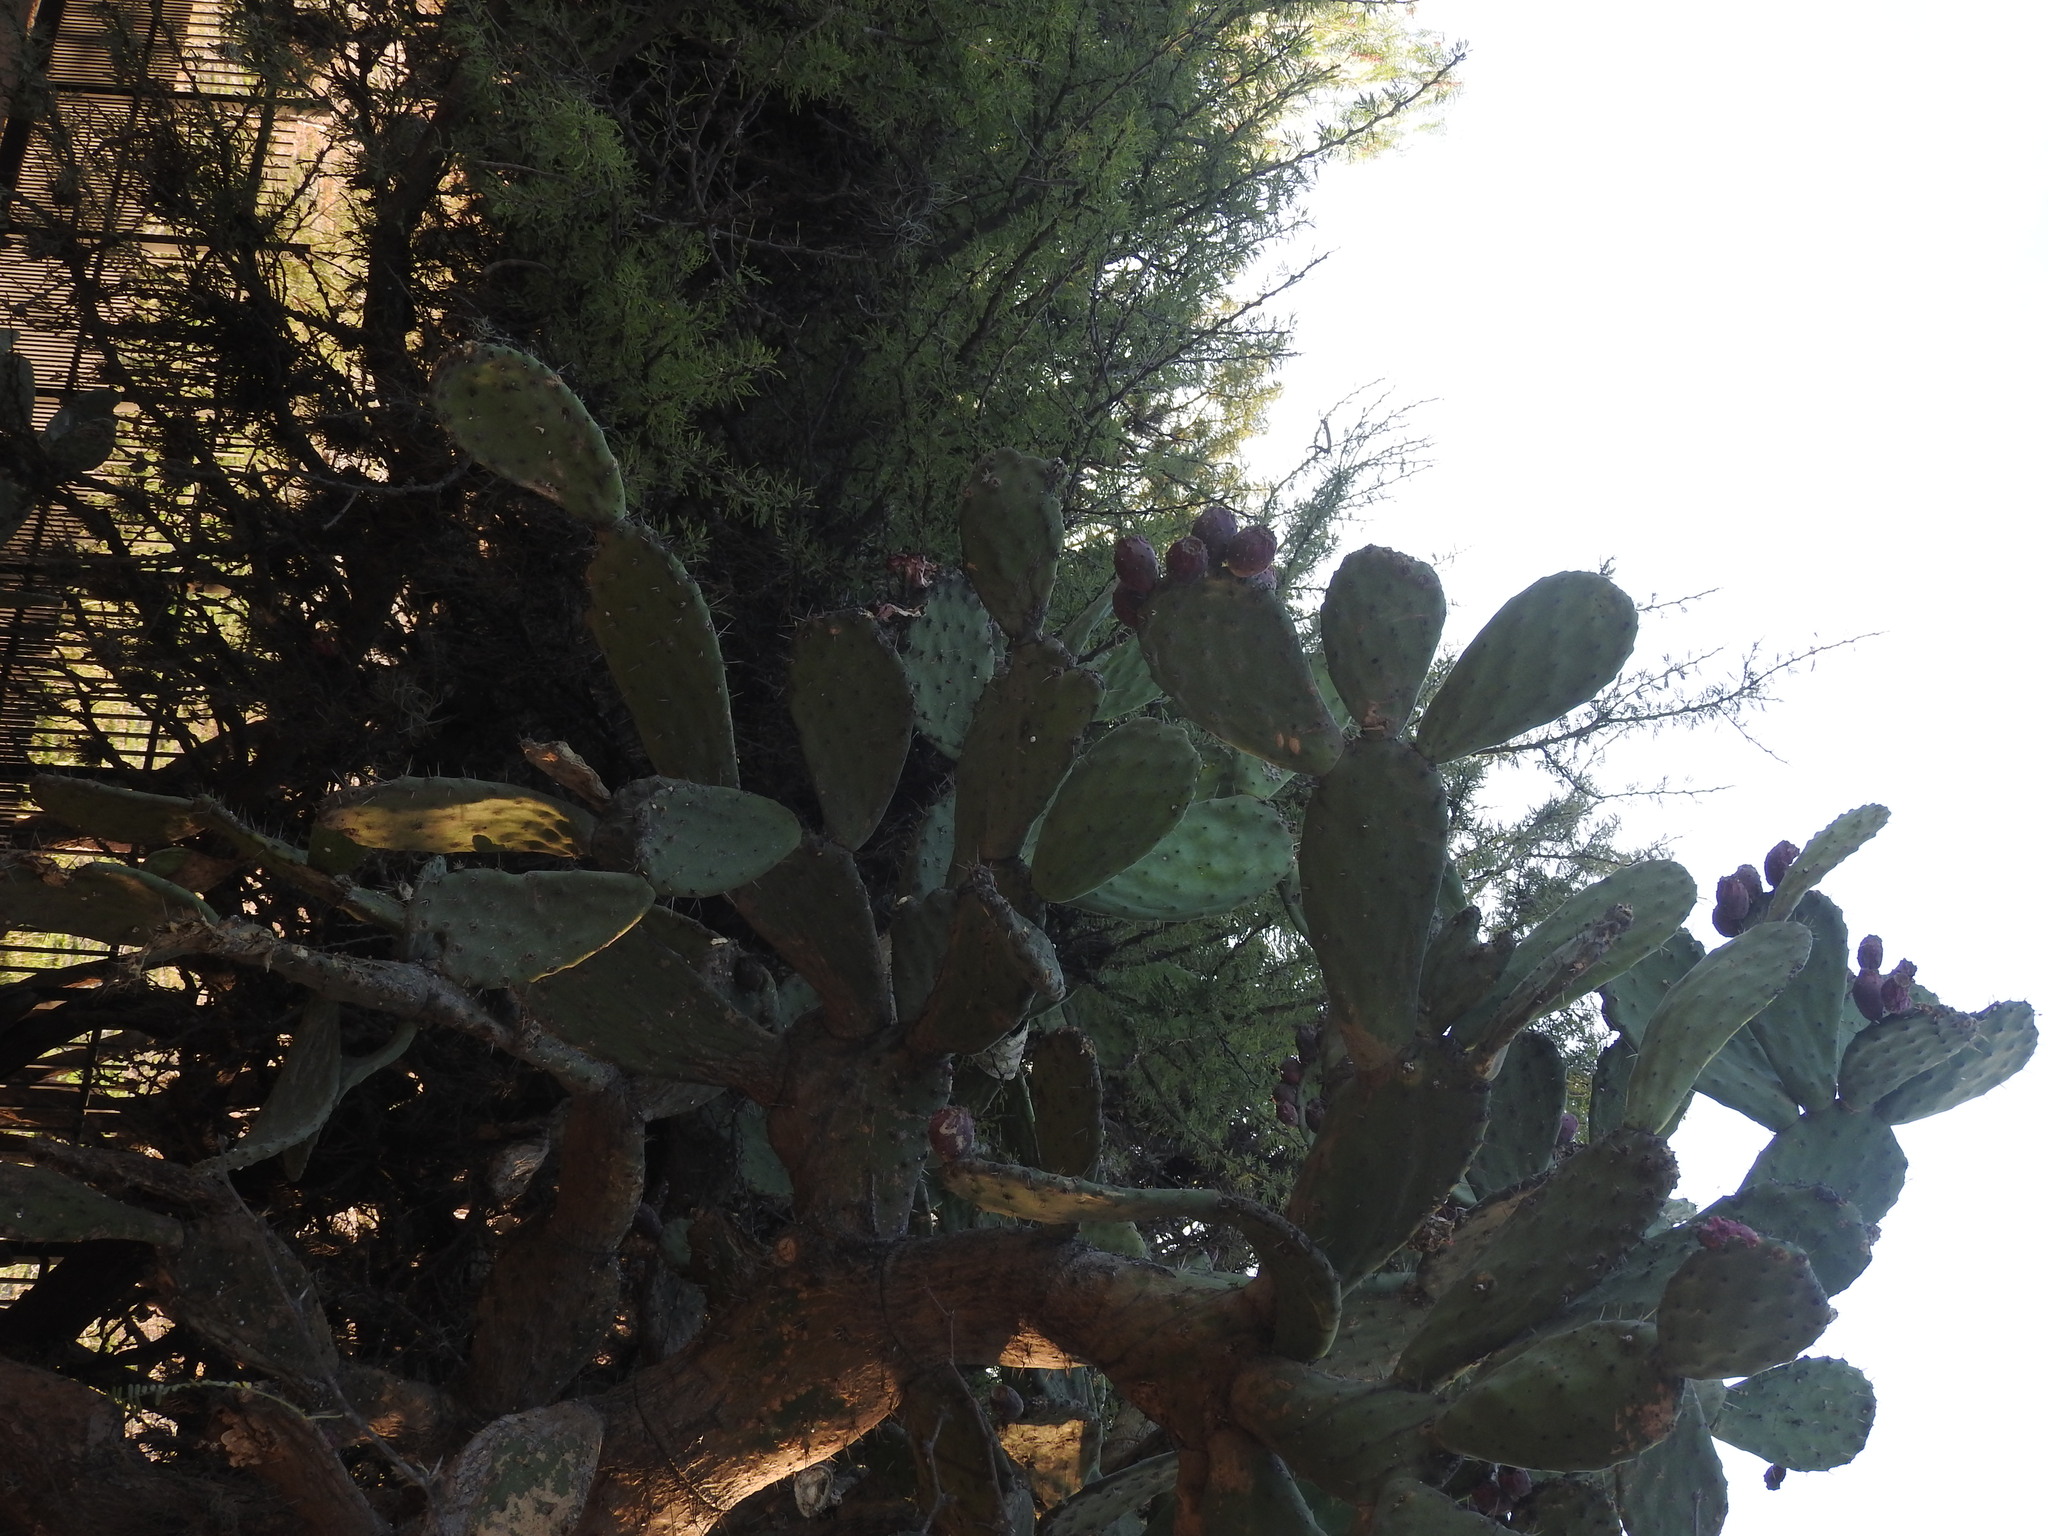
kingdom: Plantae
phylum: Tracheophyta
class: Magnoliopsida
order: Caryophyllales
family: Cactaceae
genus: Opuntia
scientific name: Opuntia tomentosa
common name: Woollyjoint pricklypear
